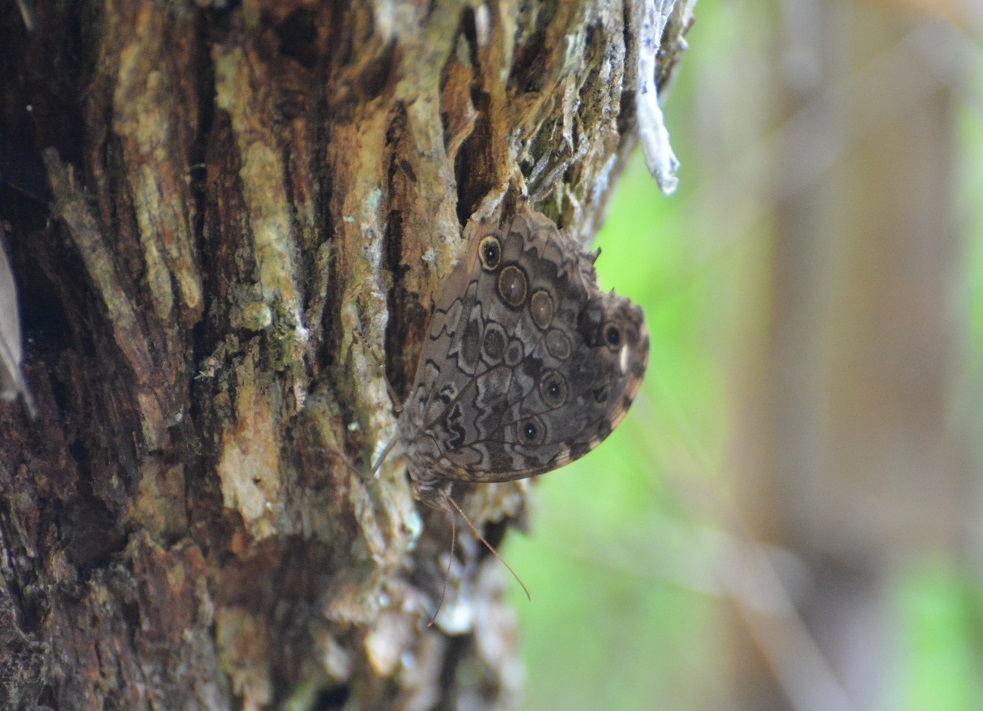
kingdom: Animalia
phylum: Arthropoda
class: Insecta
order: Lepidoptera
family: Nymphalidae
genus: Manataria
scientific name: Manataria maculata
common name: White-spotted satyr
